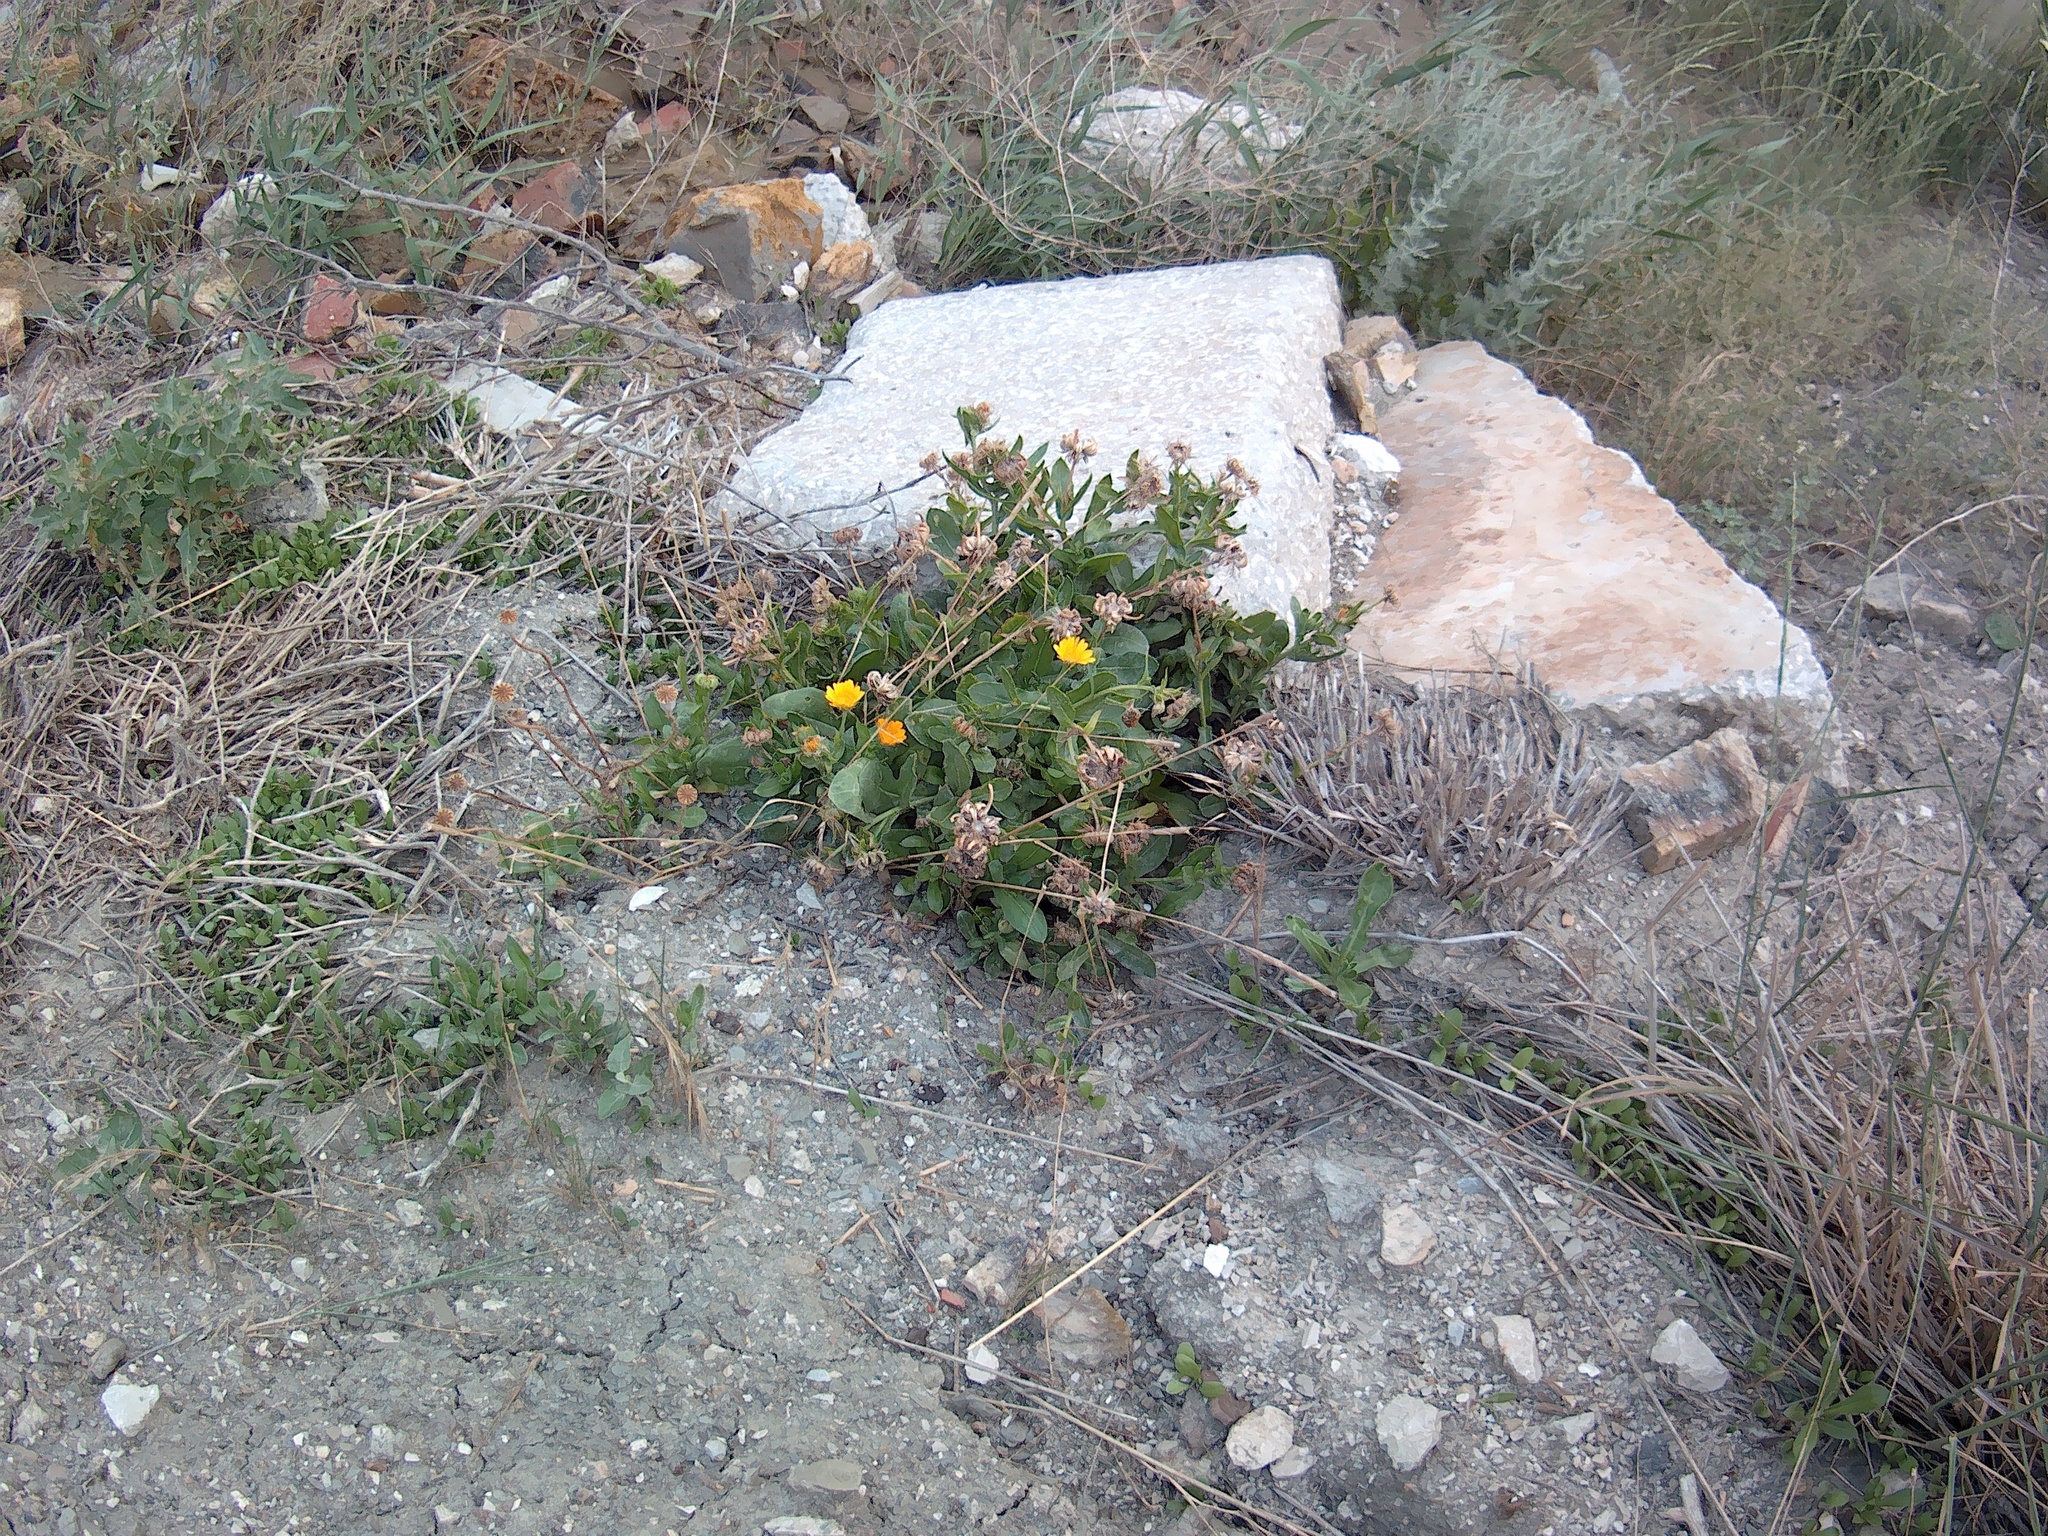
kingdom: Plantae
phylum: Tracheophyta
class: Magnoliopsida
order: Asterales
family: Asteraceae
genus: Calendula
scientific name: Calendula officinalis
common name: Pot marigold
